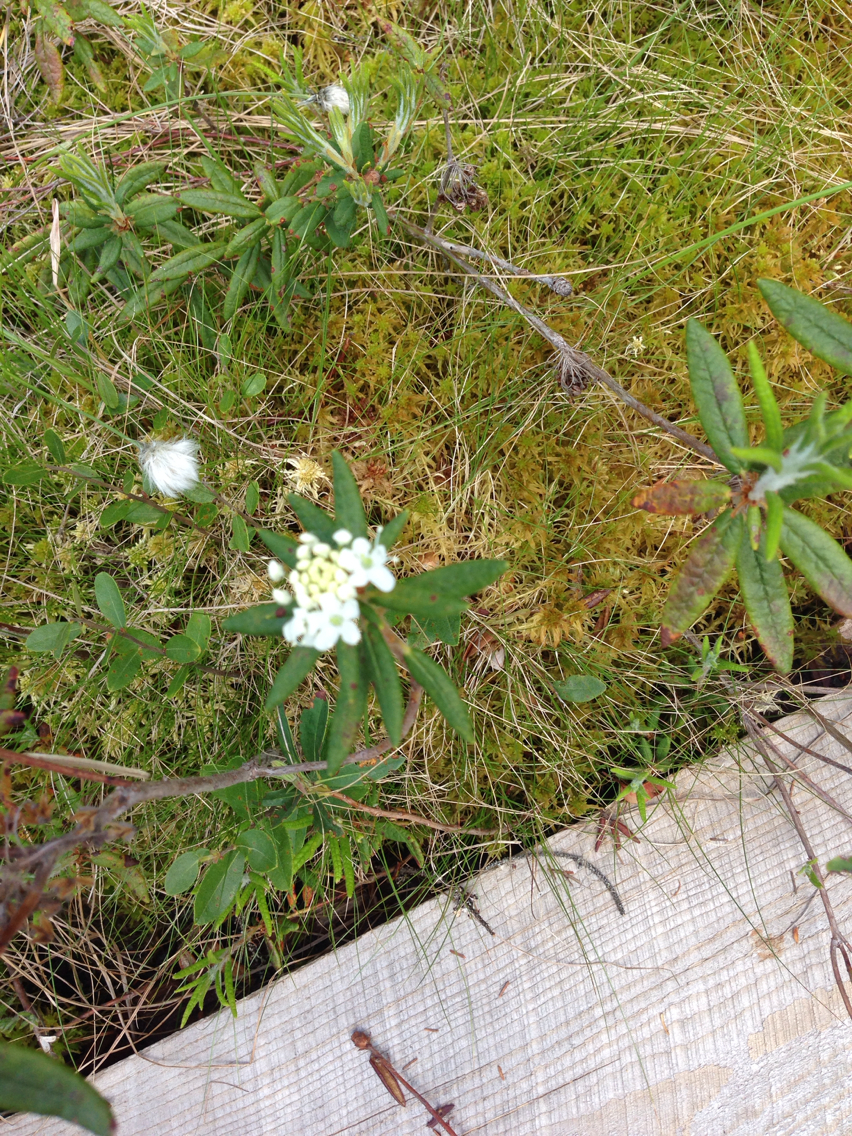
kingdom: Plantae
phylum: Tracheophyta
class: Magnoliopsida
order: Ericales
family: Ericaceae
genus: Rhododendron
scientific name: Rhododendron groenlandicum
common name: Bog labrador tea
